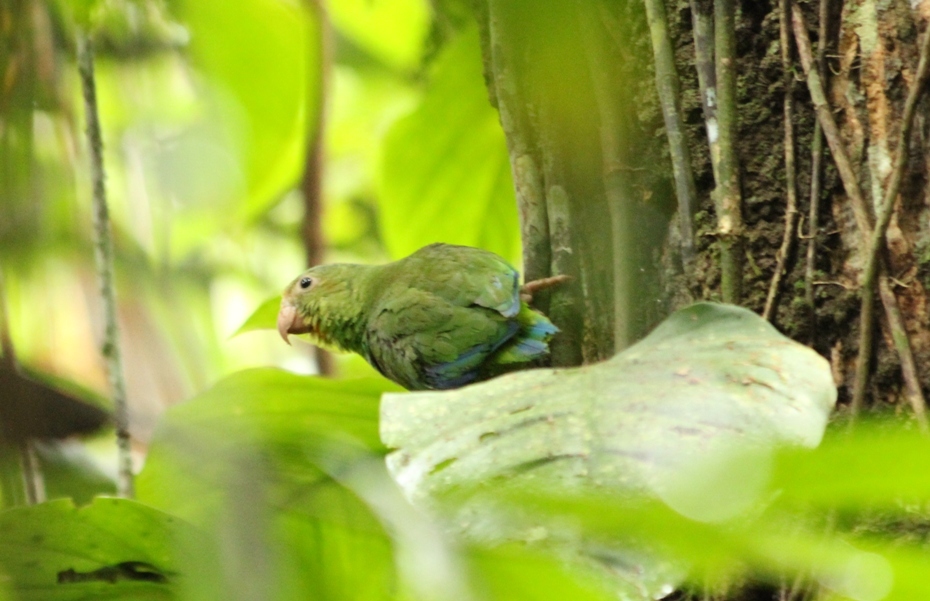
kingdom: Animalia
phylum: Chordata
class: Aves
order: Psittaciformes
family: Psittacidae
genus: Brotogeris
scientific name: Brotogeris cyanoptera
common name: Cobalt-winged parakeet
